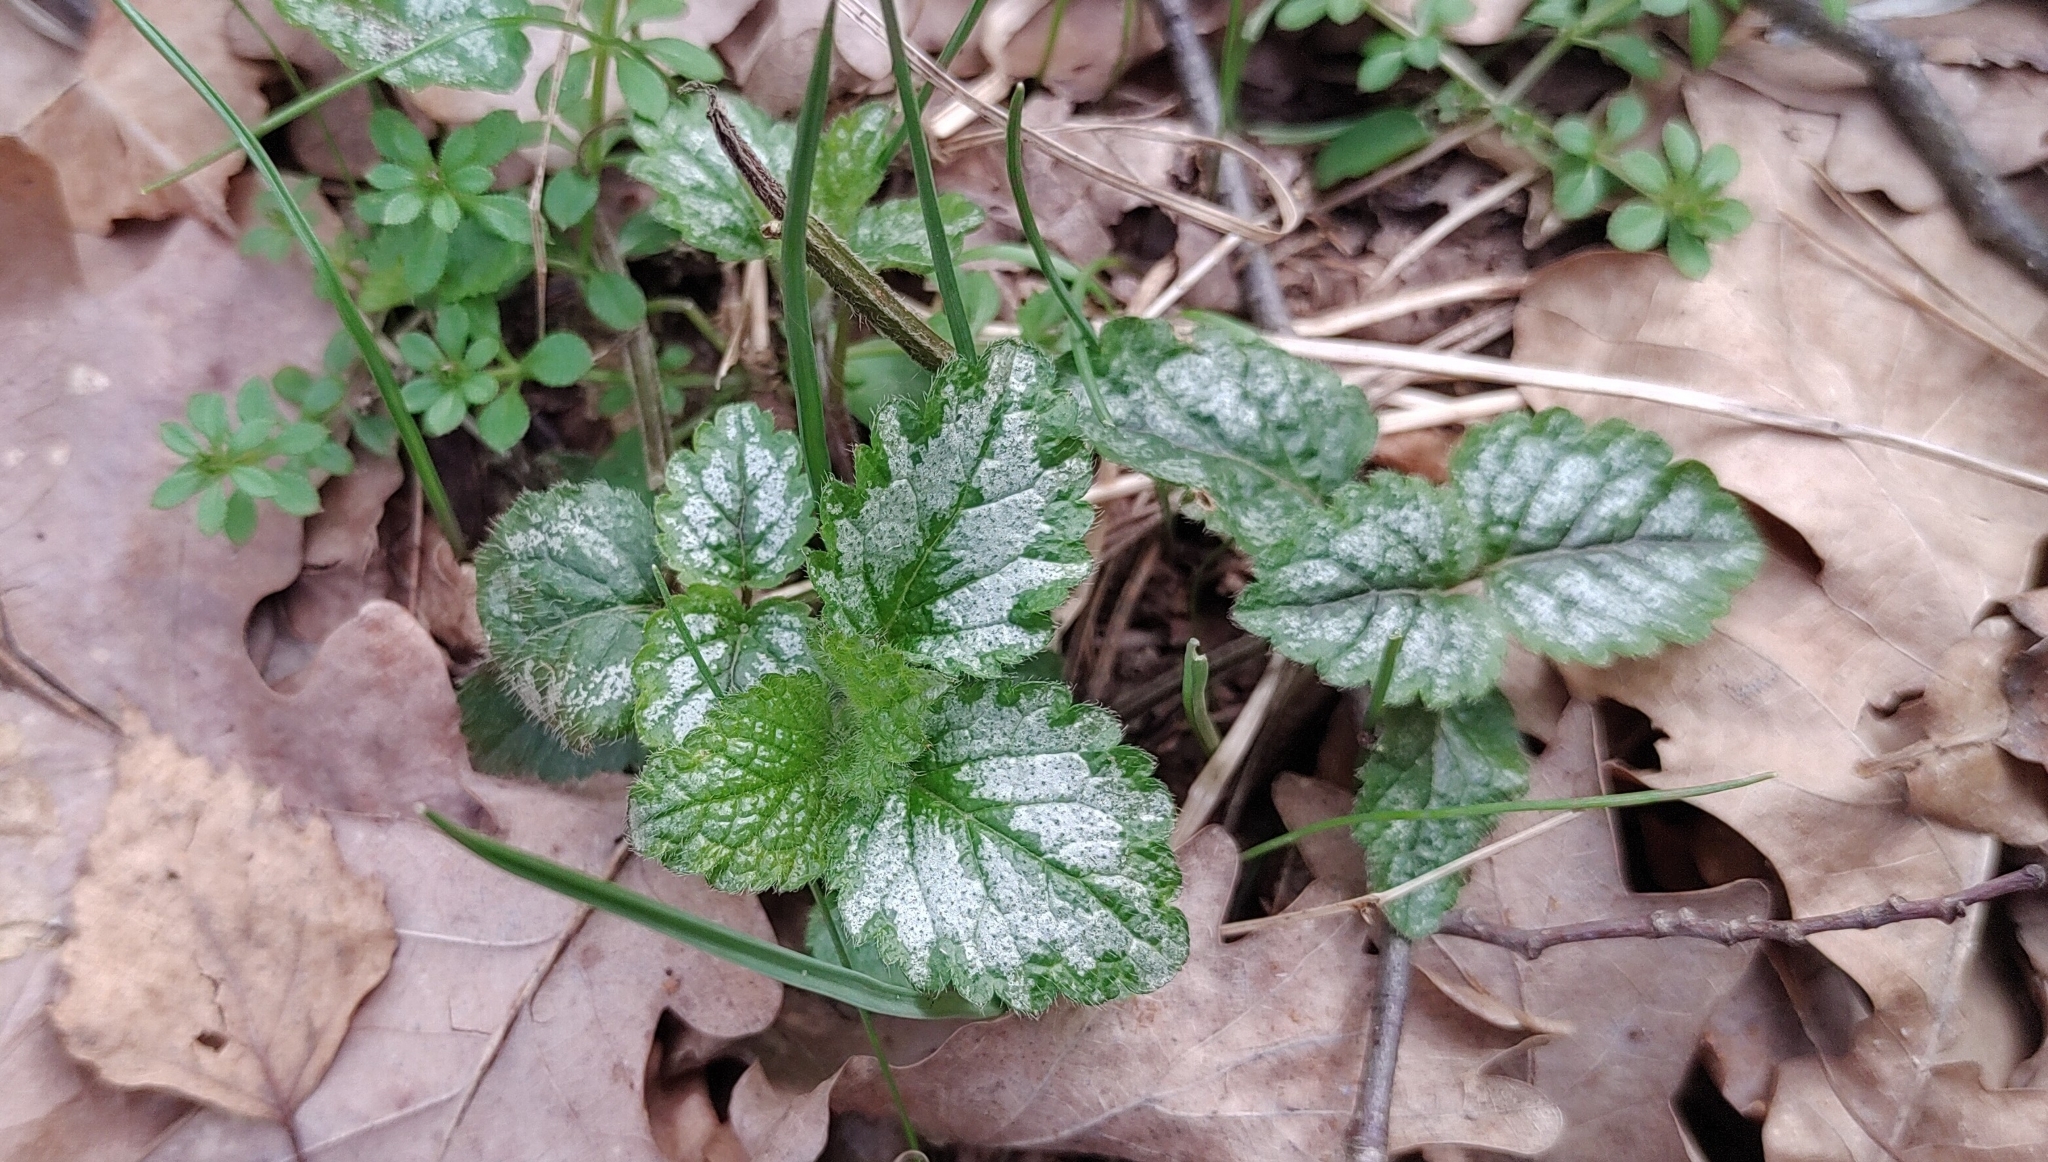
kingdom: Plantae
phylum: Tracheophyta
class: Magnoliopsida
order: Lamiales
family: Lamiaceae
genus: Lamium
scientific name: Lamium galeobdolon
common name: Yellow archangel
